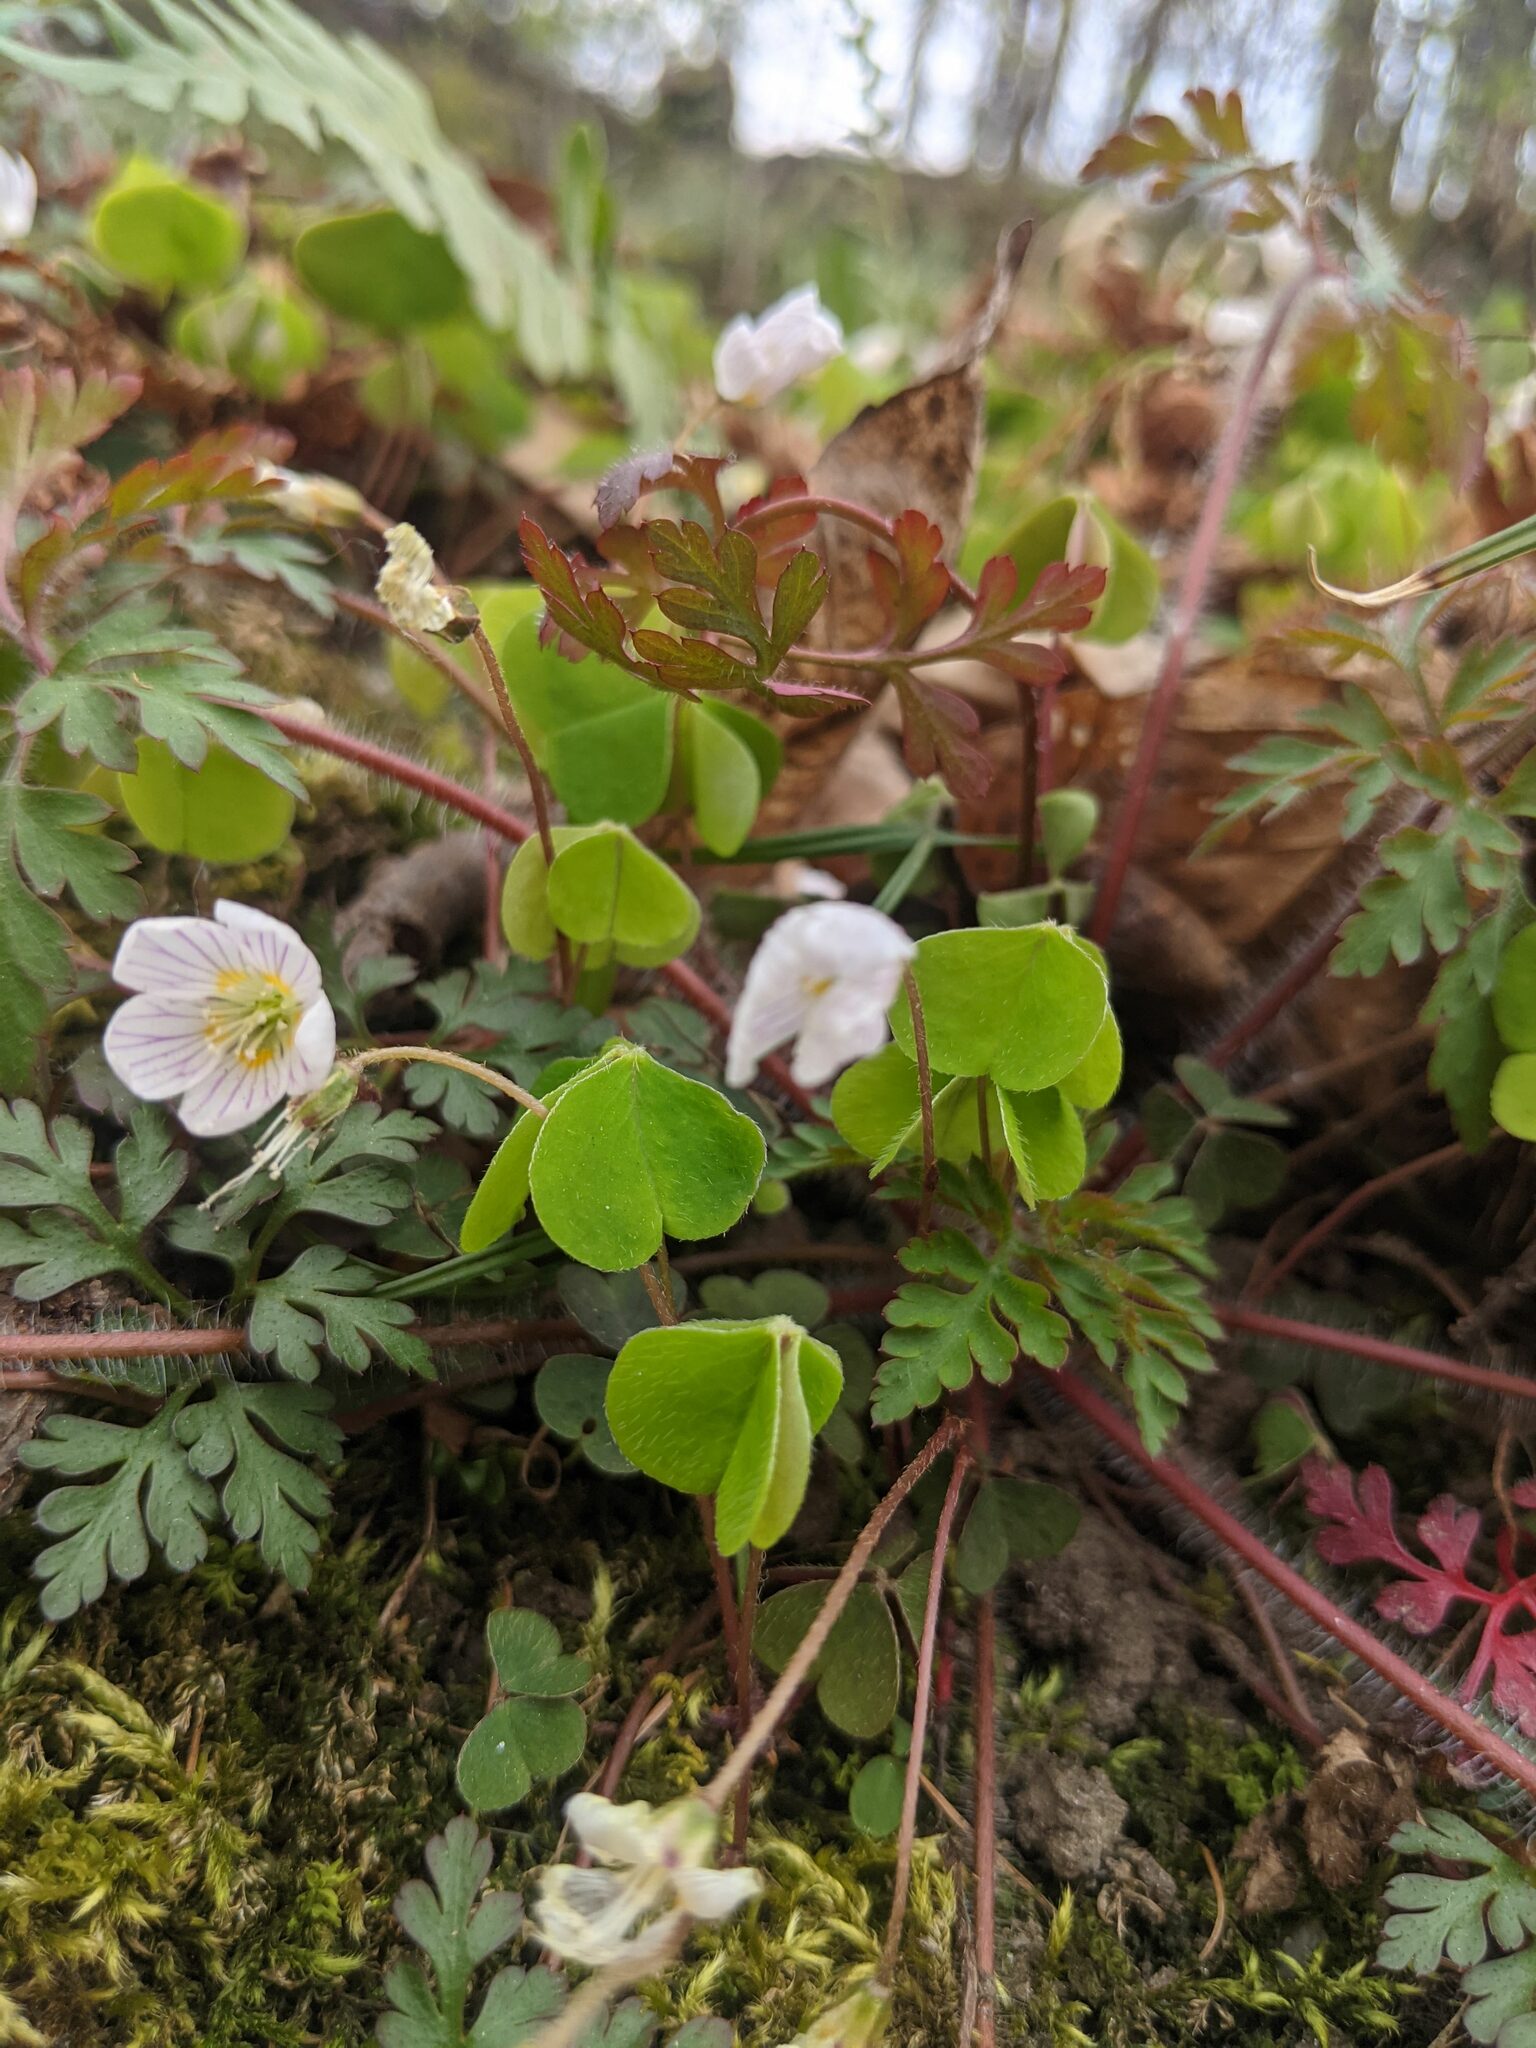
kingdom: Plantae
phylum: Tracheophyta
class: Magnoliopsida
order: Oxalidales
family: Oxalidaceae
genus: Oxalis
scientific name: Oxalis acetosella
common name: Wood-sorrel
